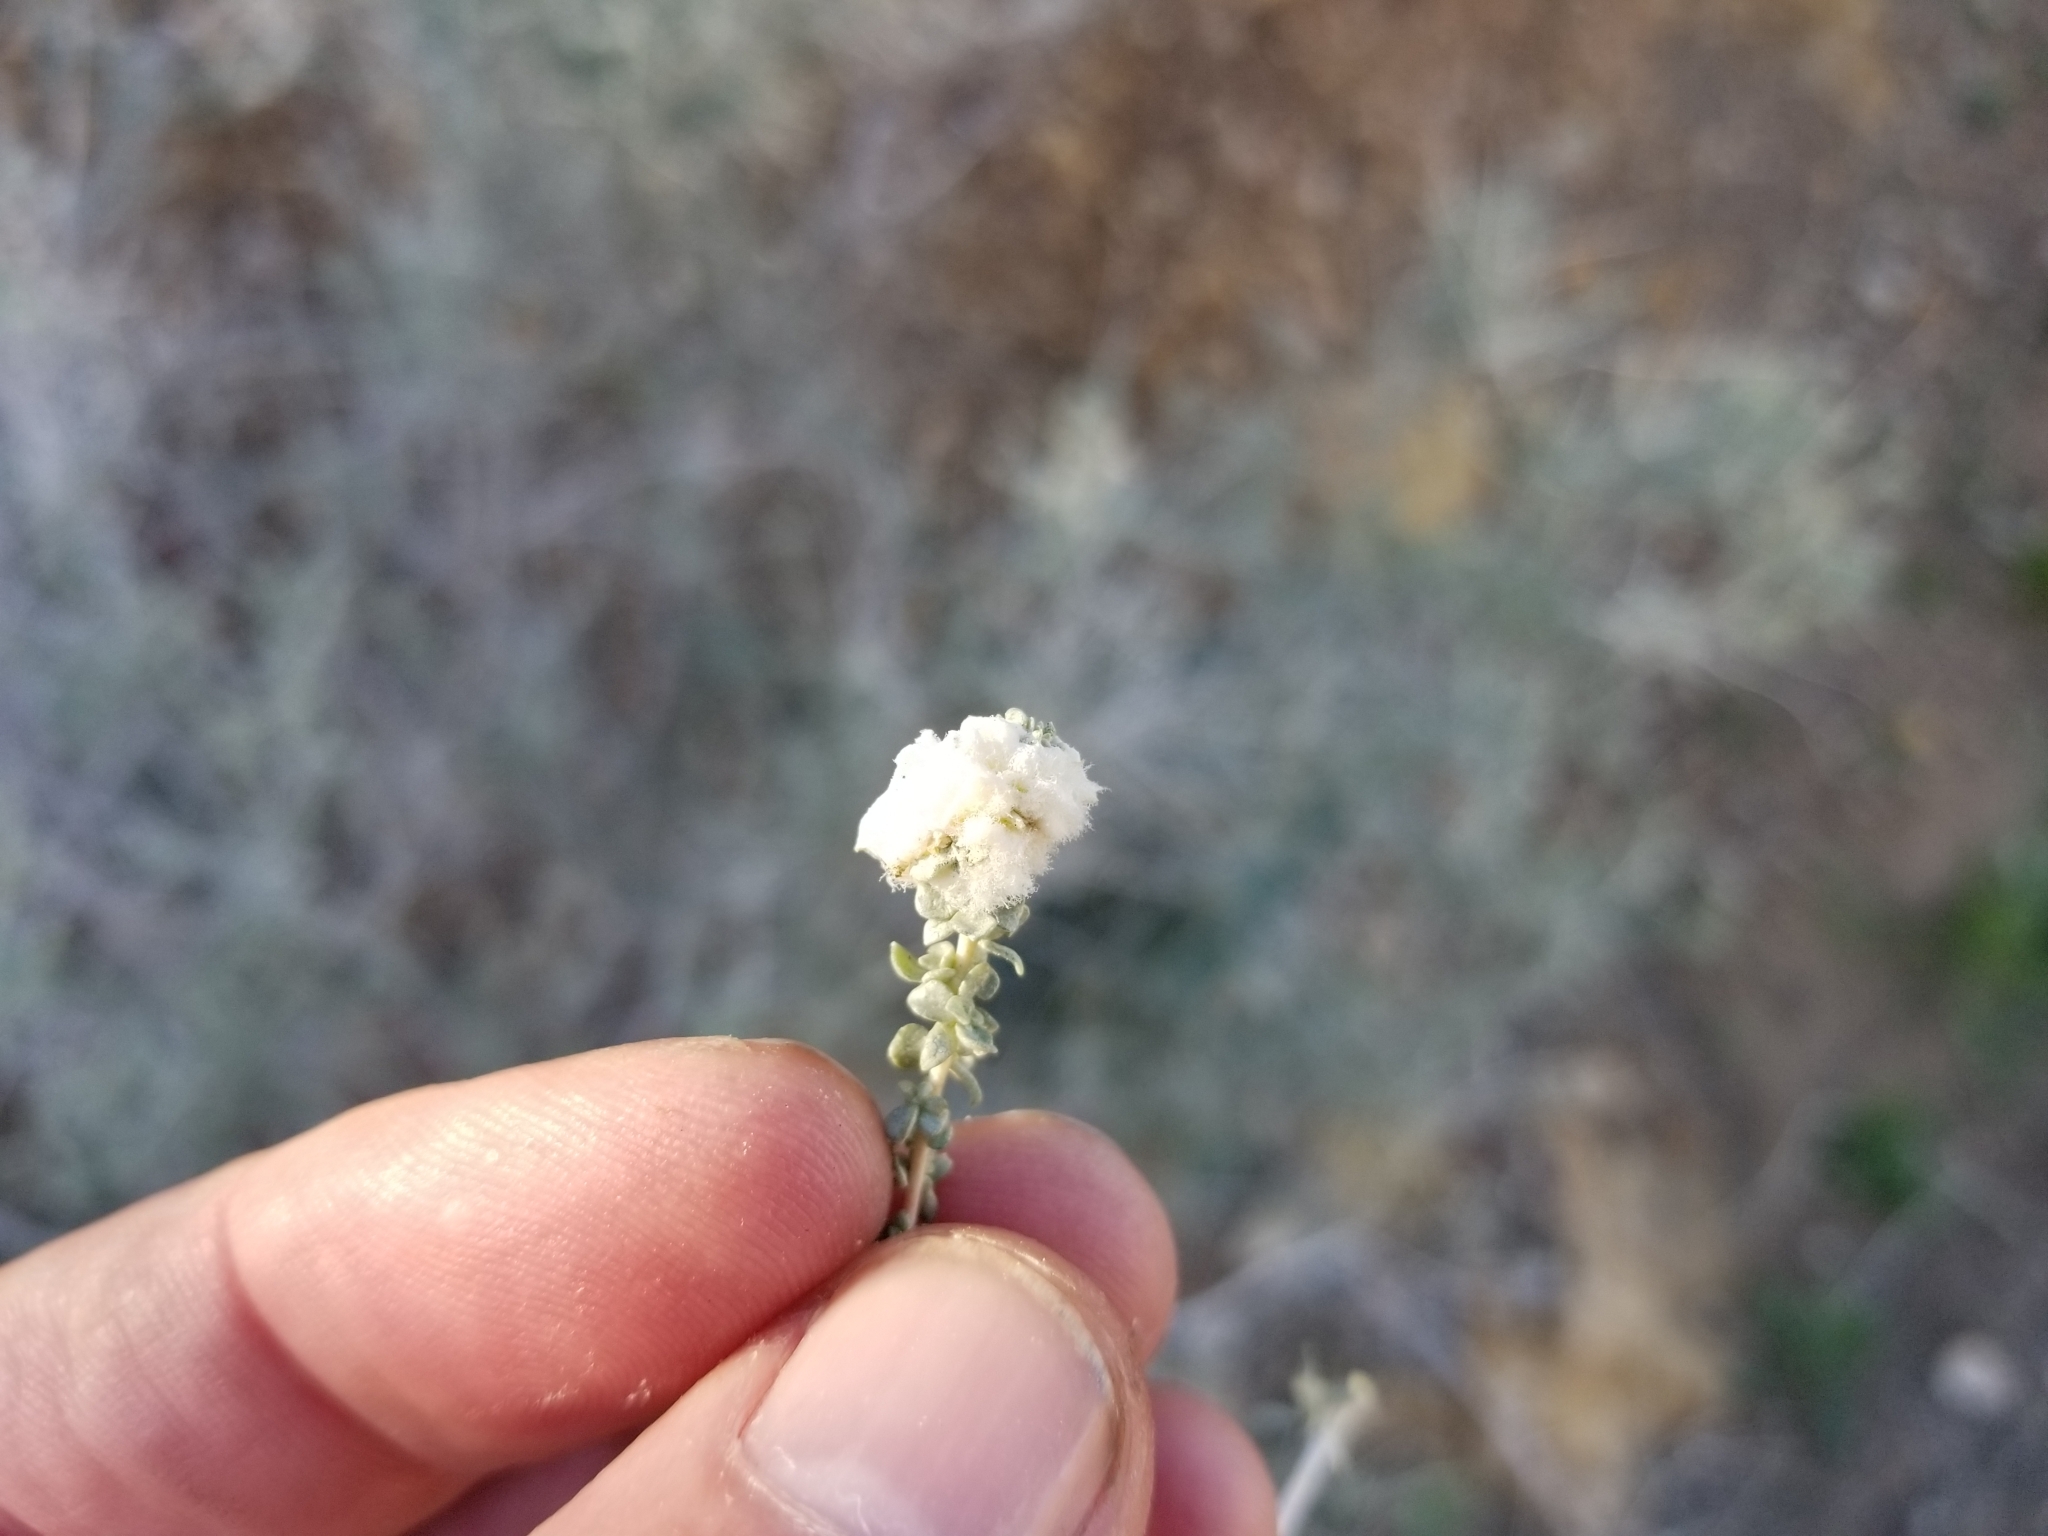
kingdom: Animalia
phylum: Arthropoda
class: Insecta
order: Diptera
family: Cecidomyiidae
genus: Asphondylia
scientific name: Asphondylia floccosa
